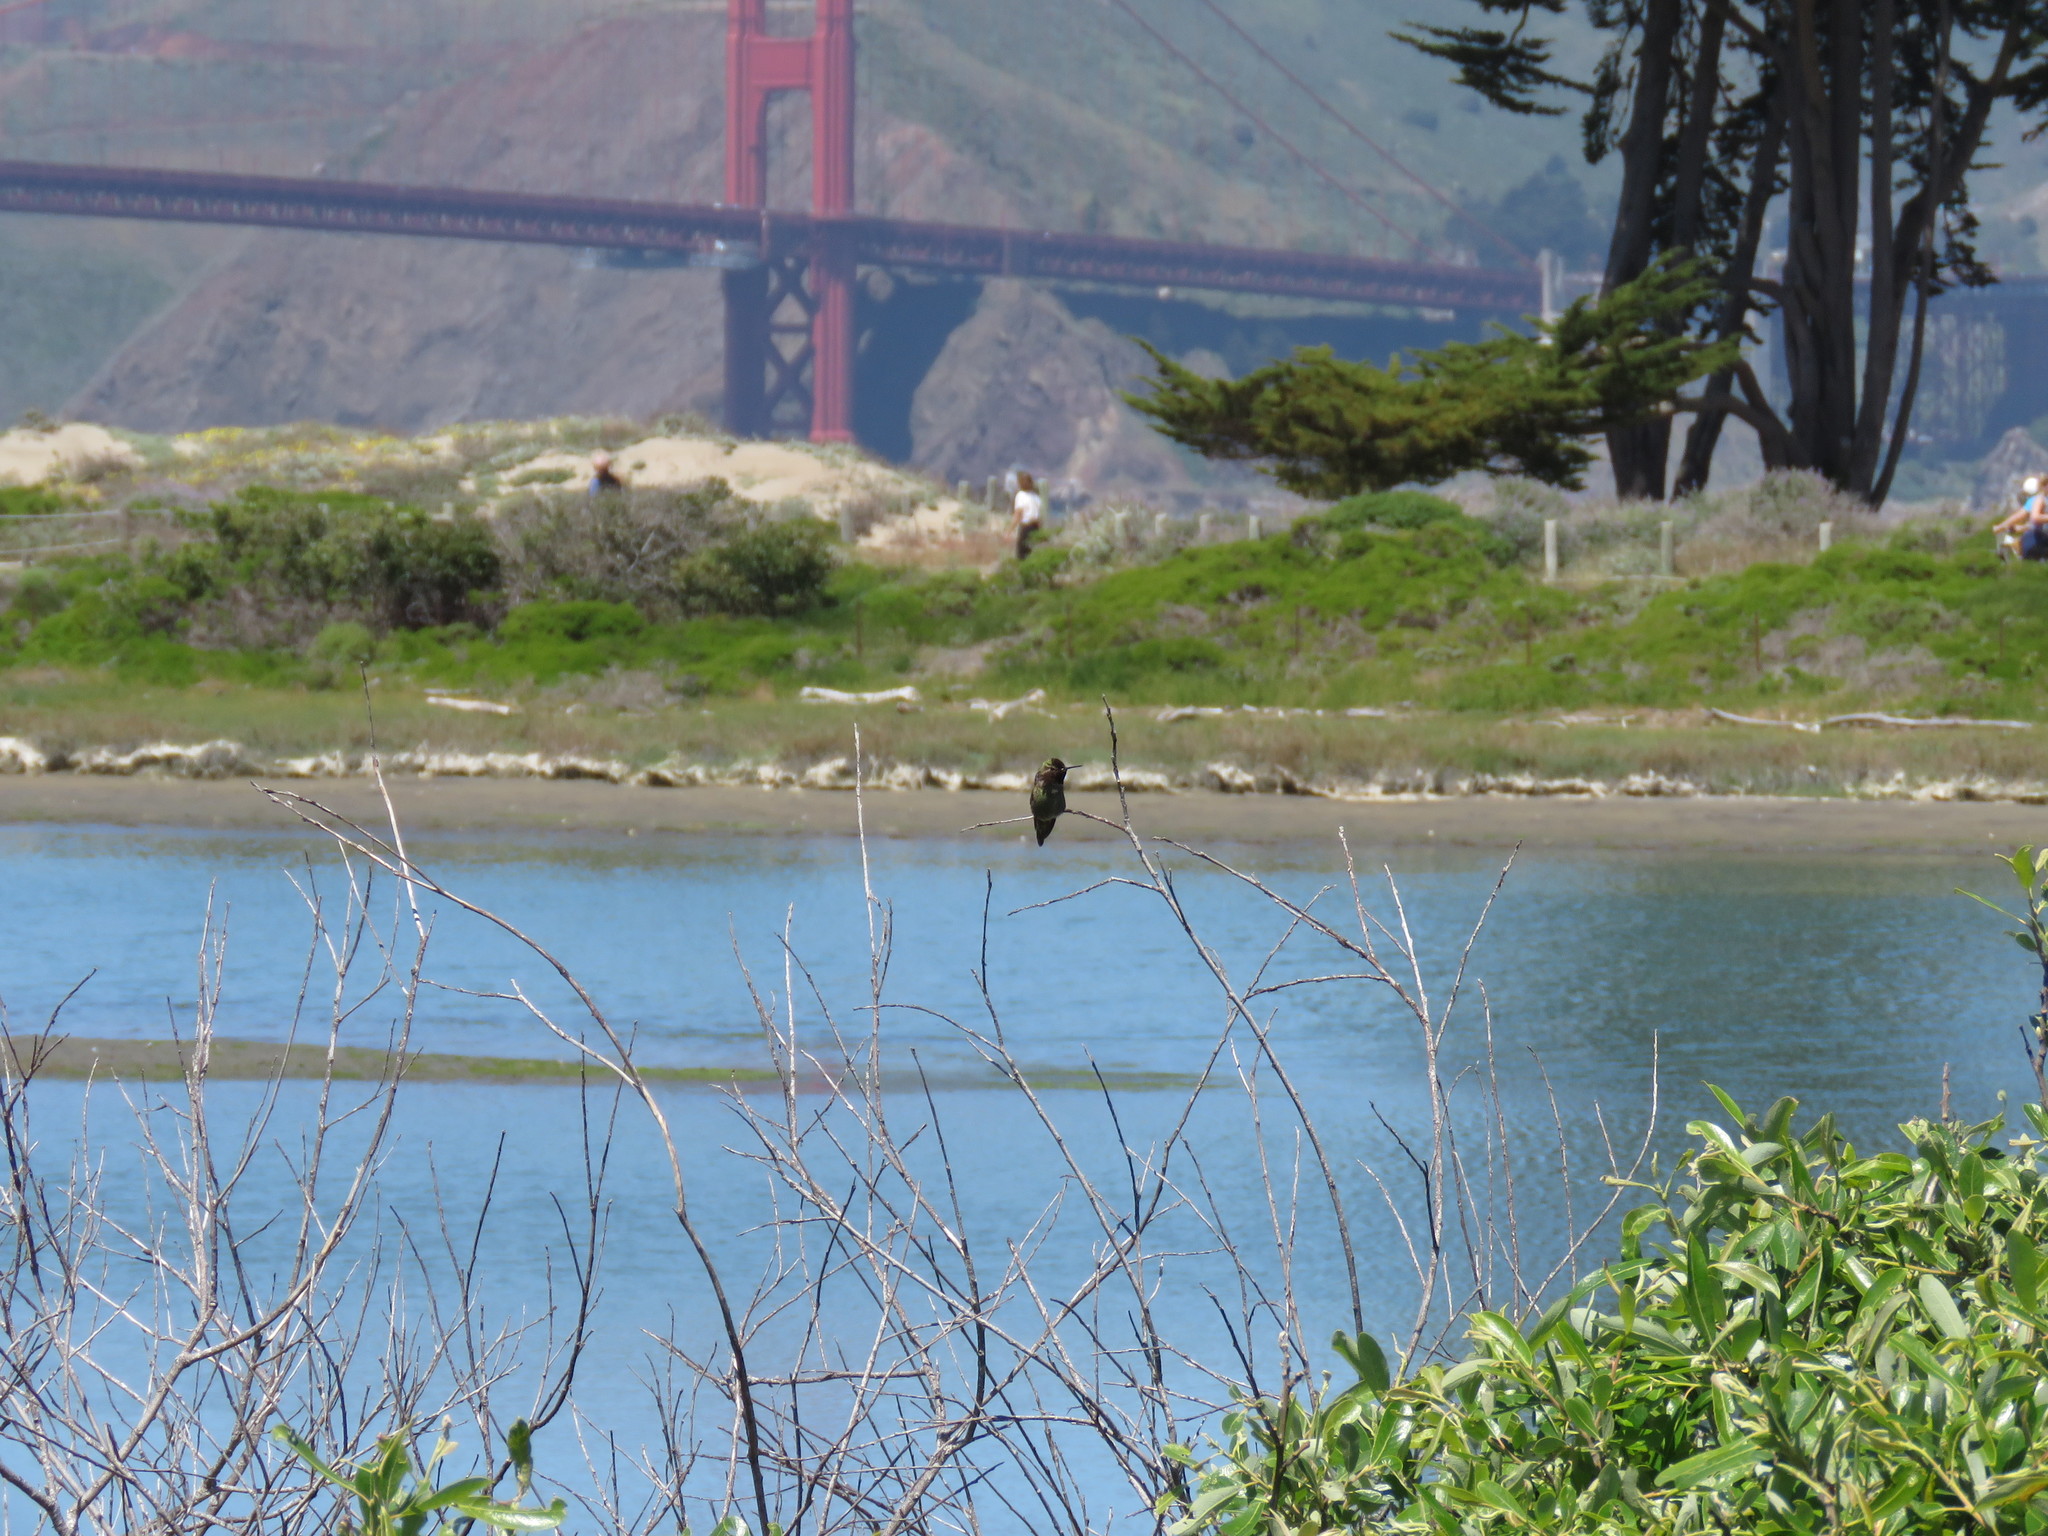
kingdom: Animalia
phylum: Chordata
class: Aves
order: Apodiformes
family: Trochilidae
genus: Calypte
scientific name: Calypte anna
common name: Anna's hummingbird
